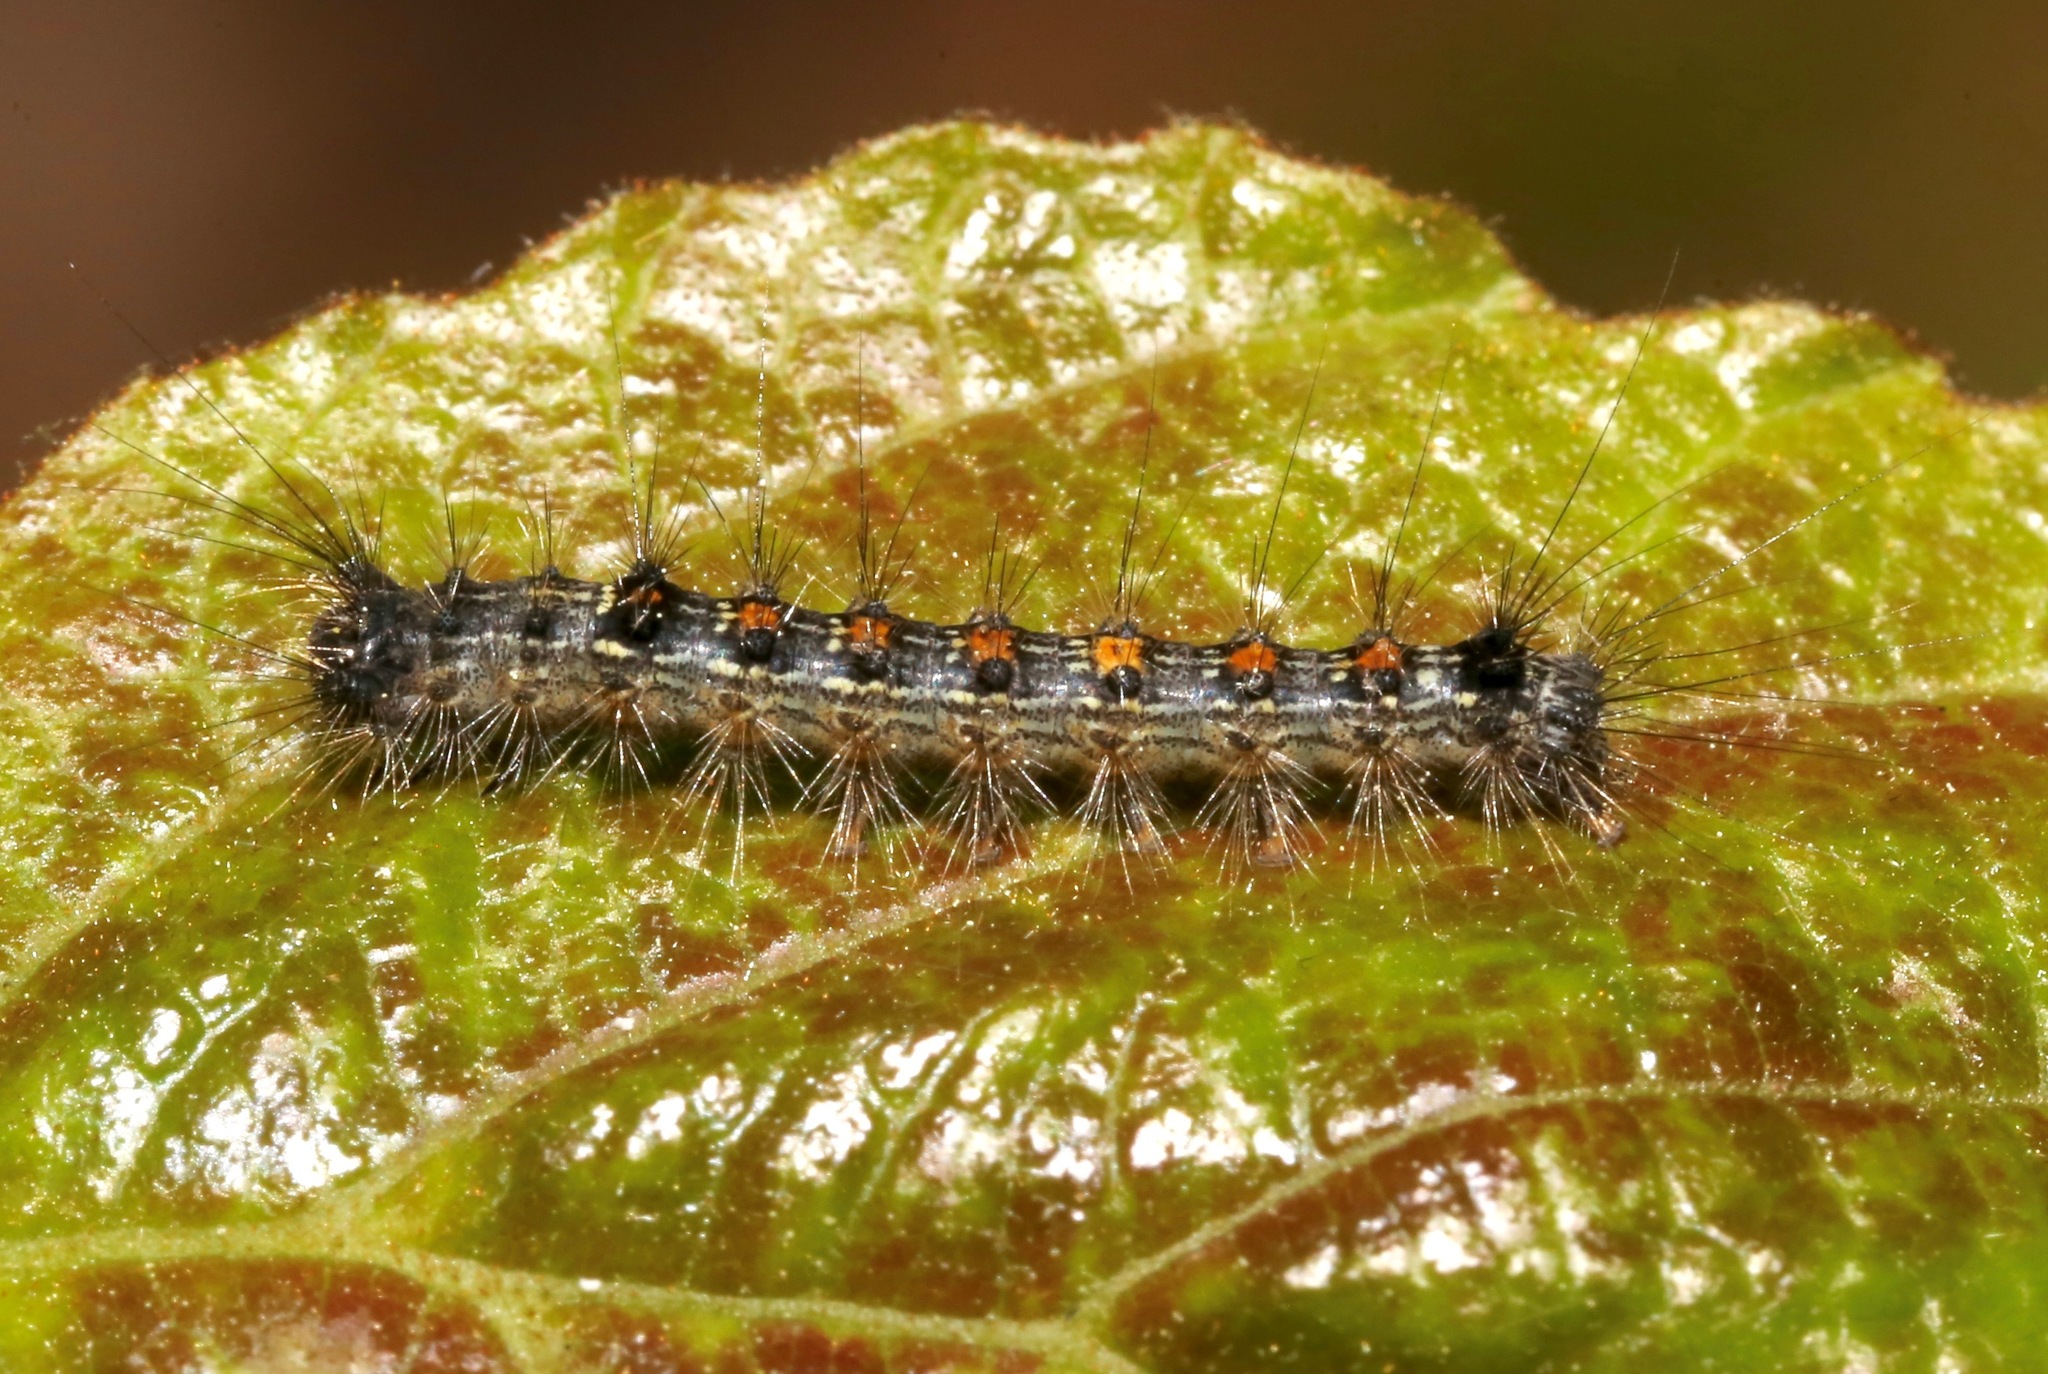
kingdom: Animalia
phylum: Arthropoda
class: Insecta
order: Lepidoptera
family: Erebidae
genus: Lymantria
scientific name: Lymantria dispar
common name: Gypsy moth
